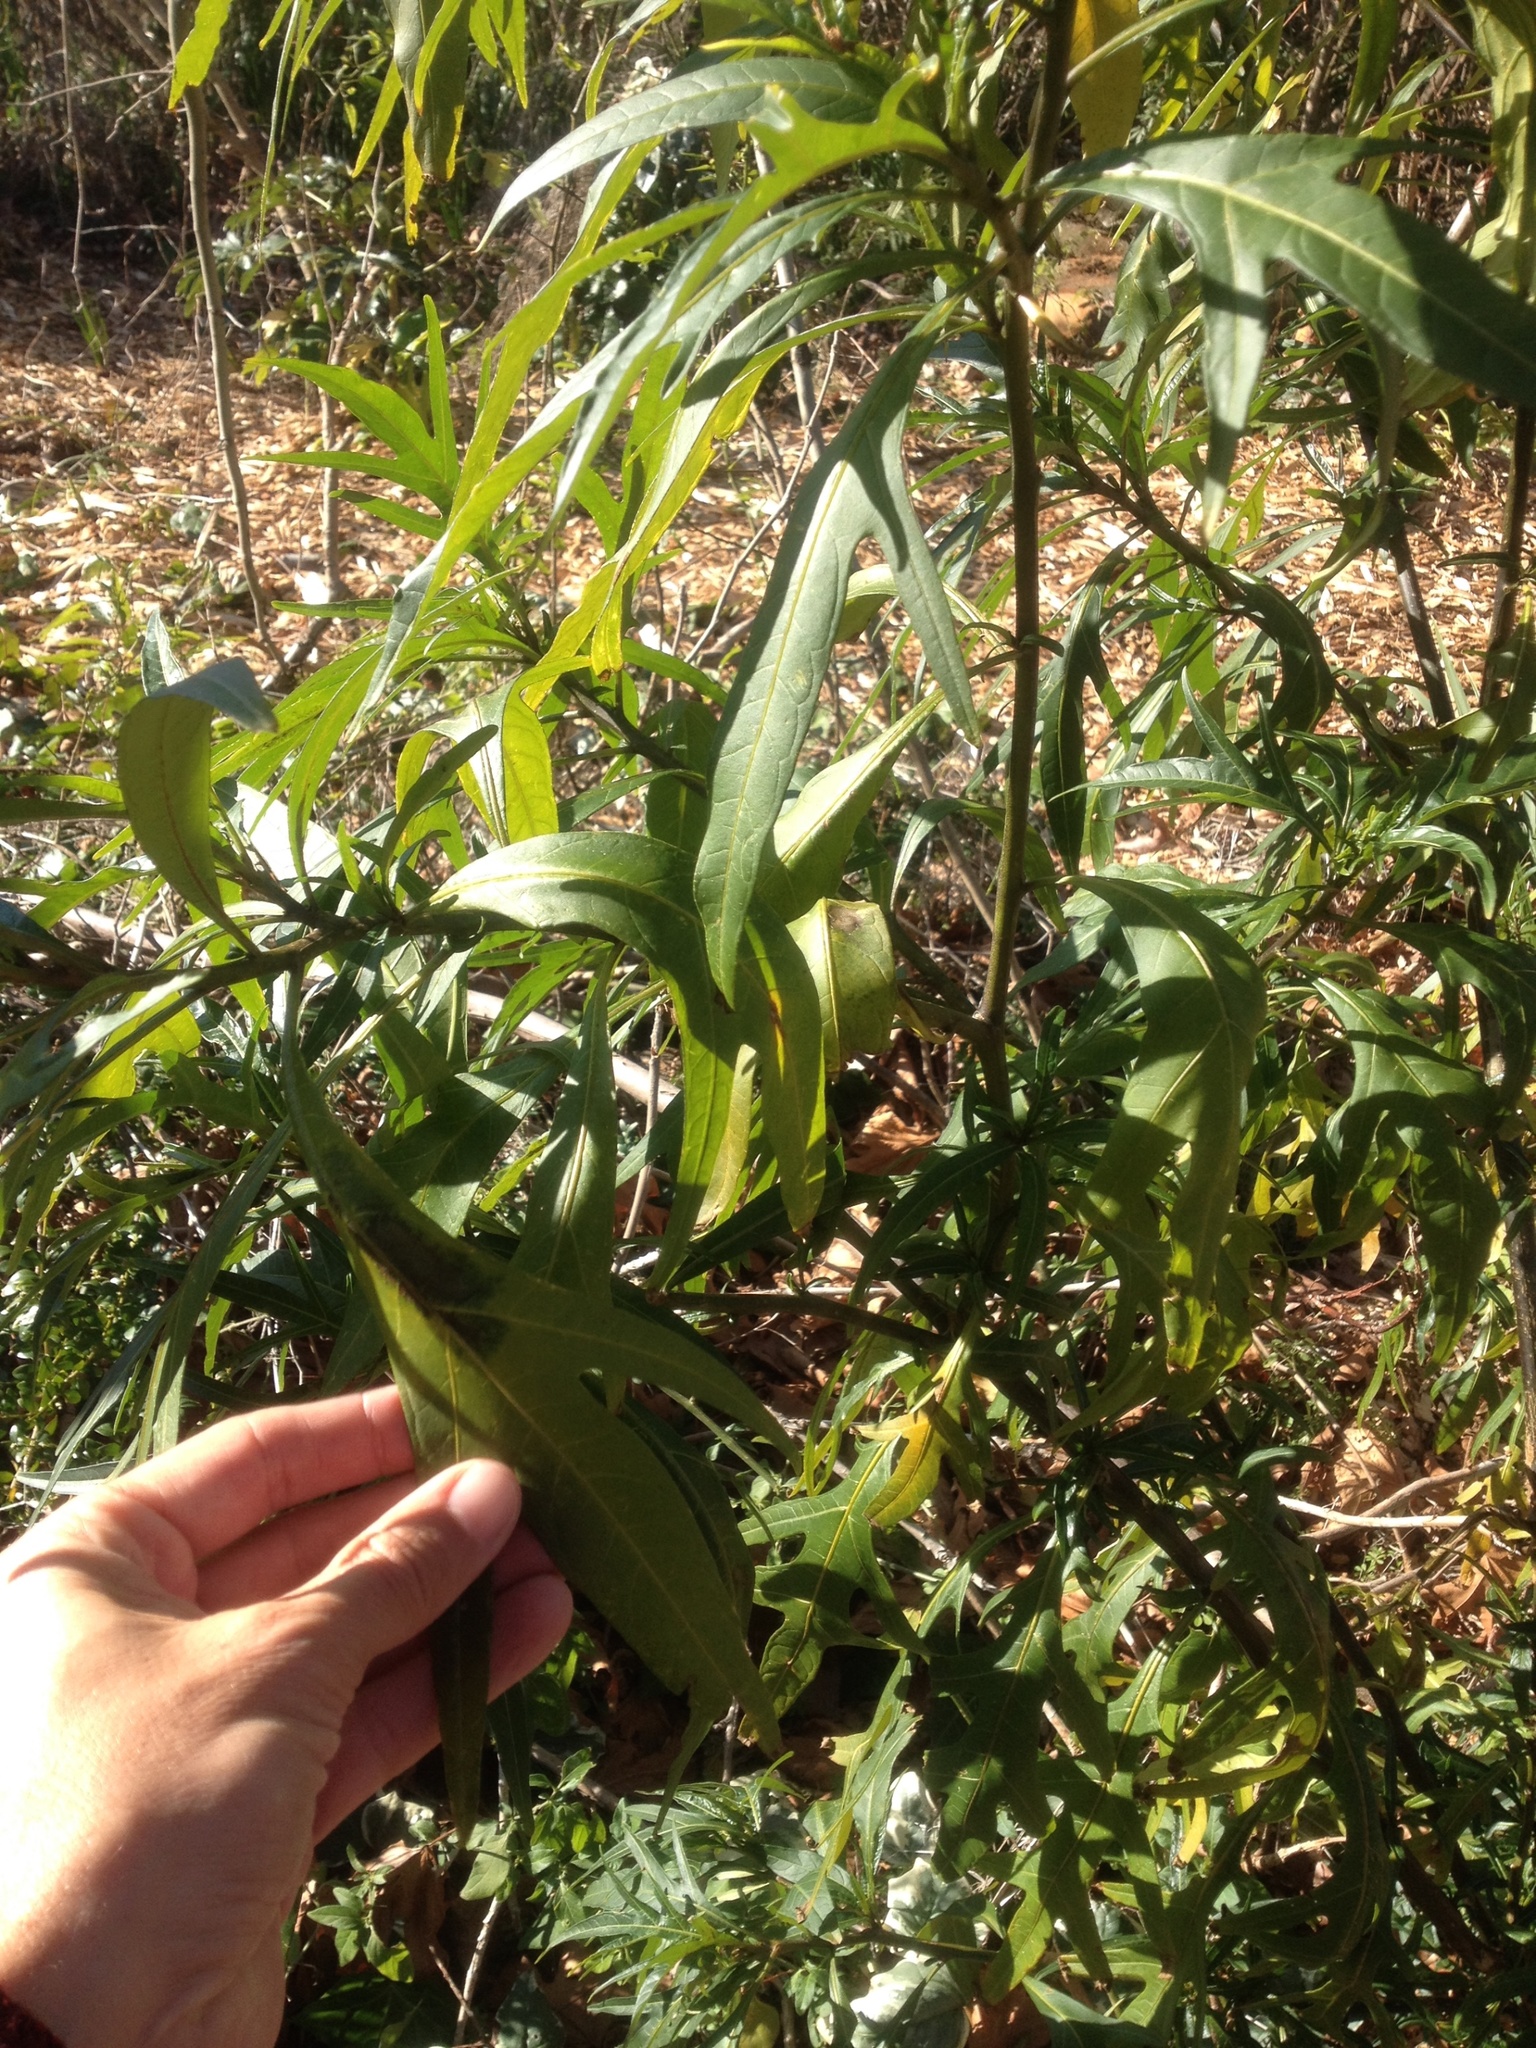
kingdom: Plantae
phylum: Tracheophyta
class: Magnoliopsida
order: Solanales
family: Solanaceae
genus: Solanum
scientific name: Solanum
